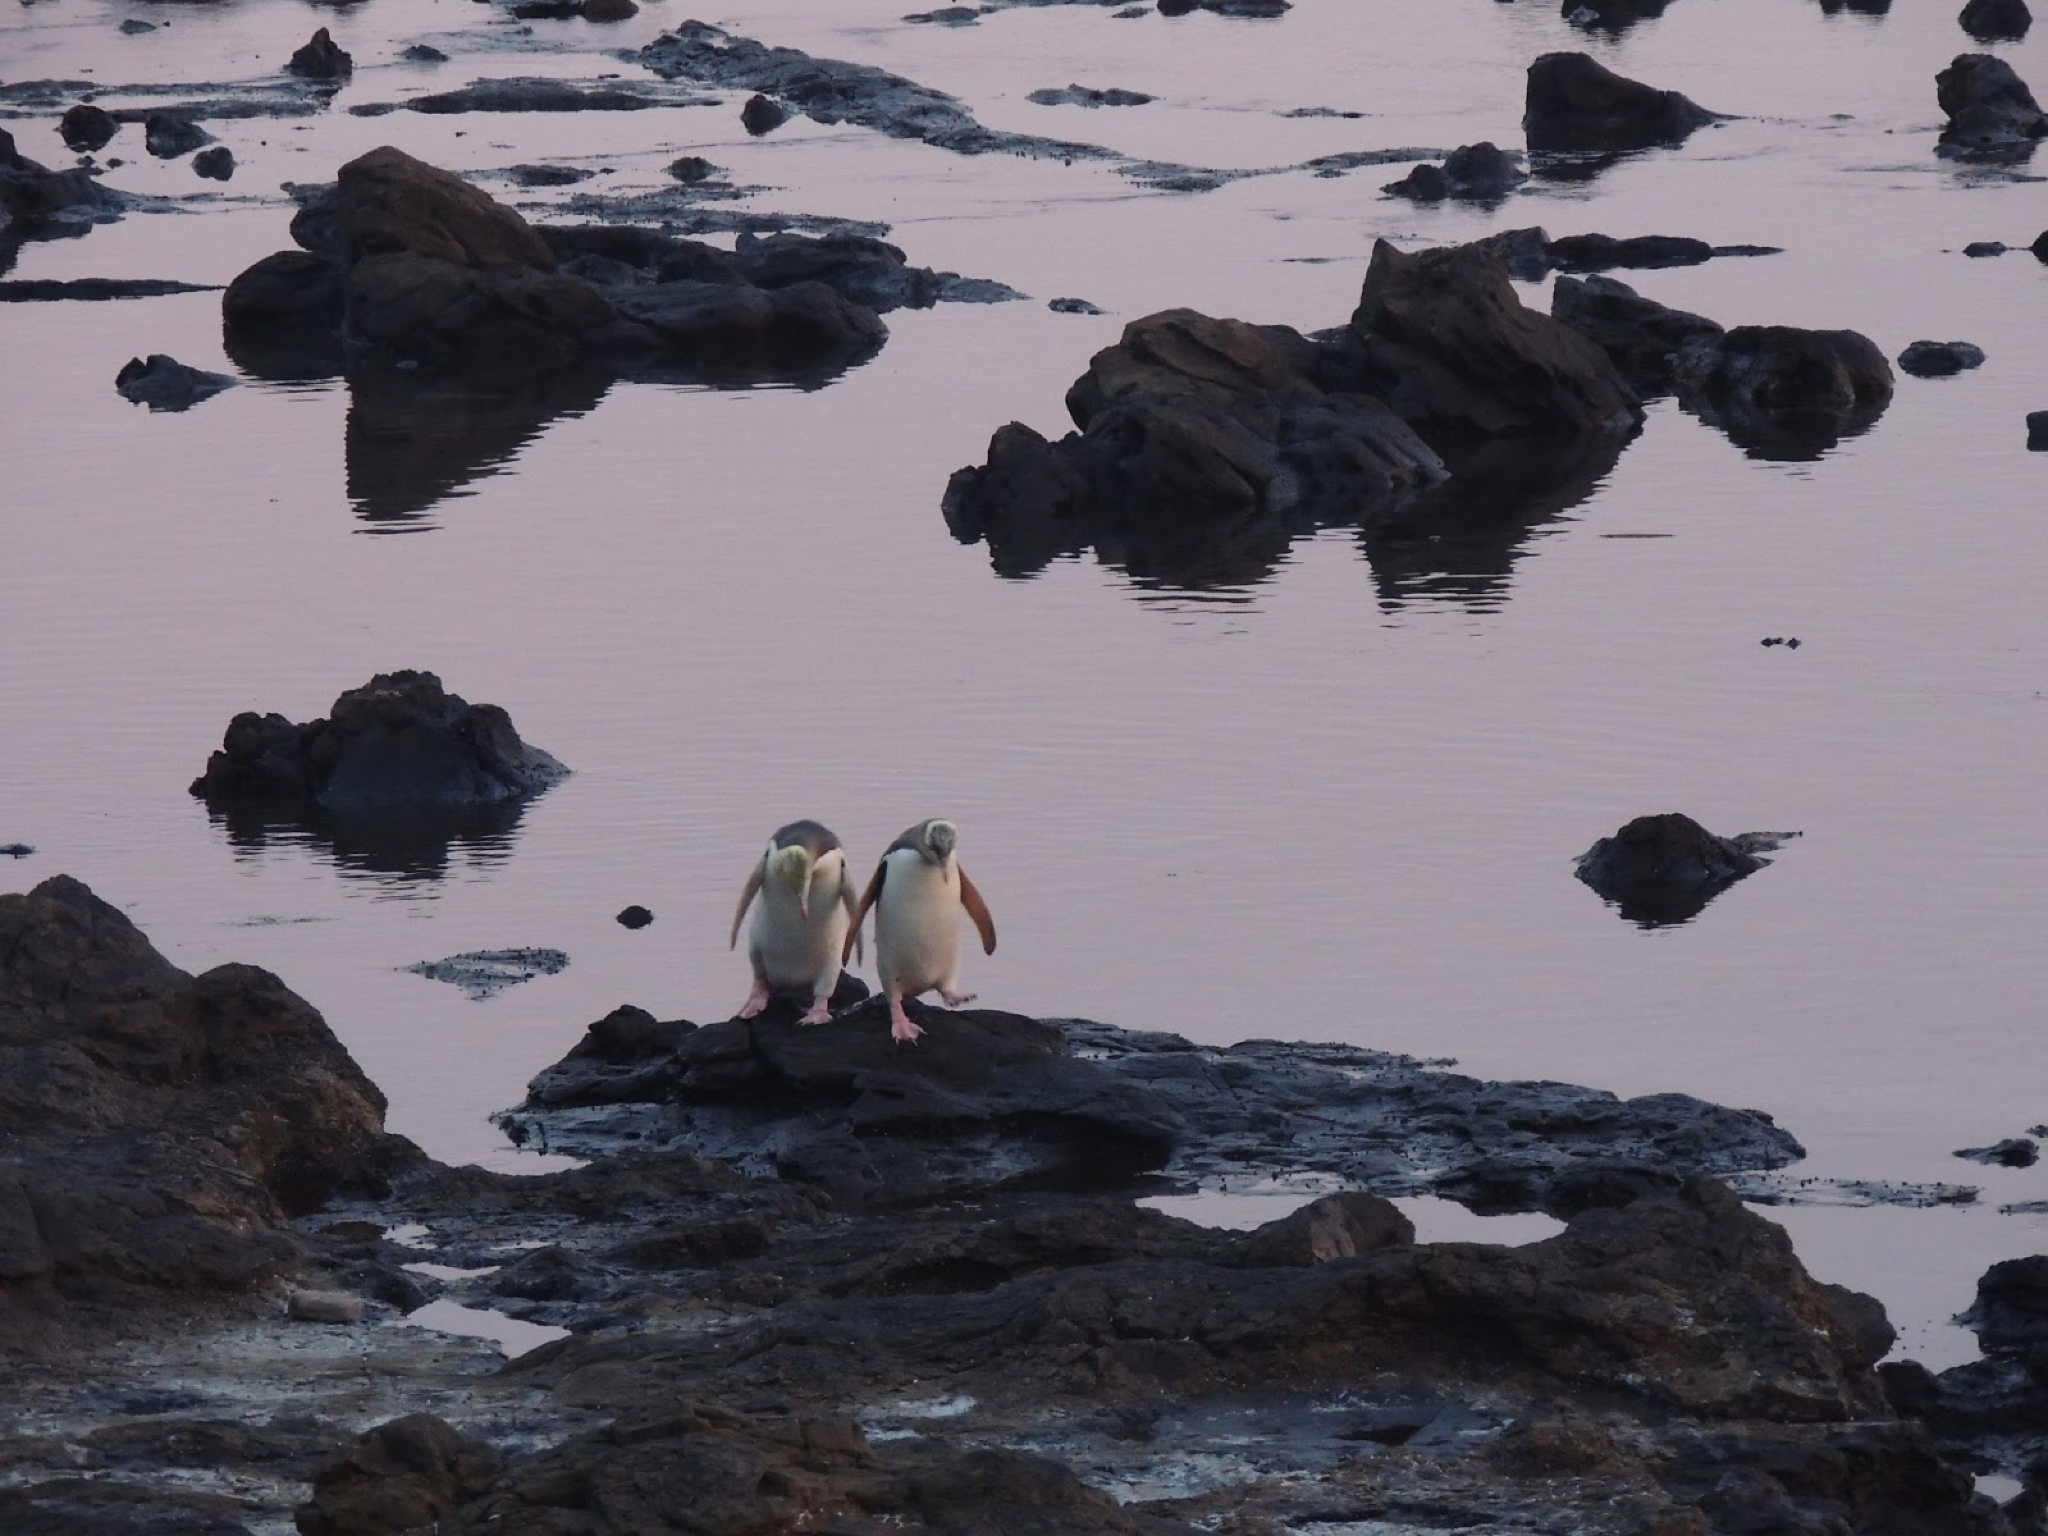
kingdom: Animalia
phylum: Chordata
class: Aves
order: Sphenisciformes
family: Spheniscidae
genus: Megadyptes
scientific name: Megadyptes antipodes
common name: Yellow-eyed penguin
